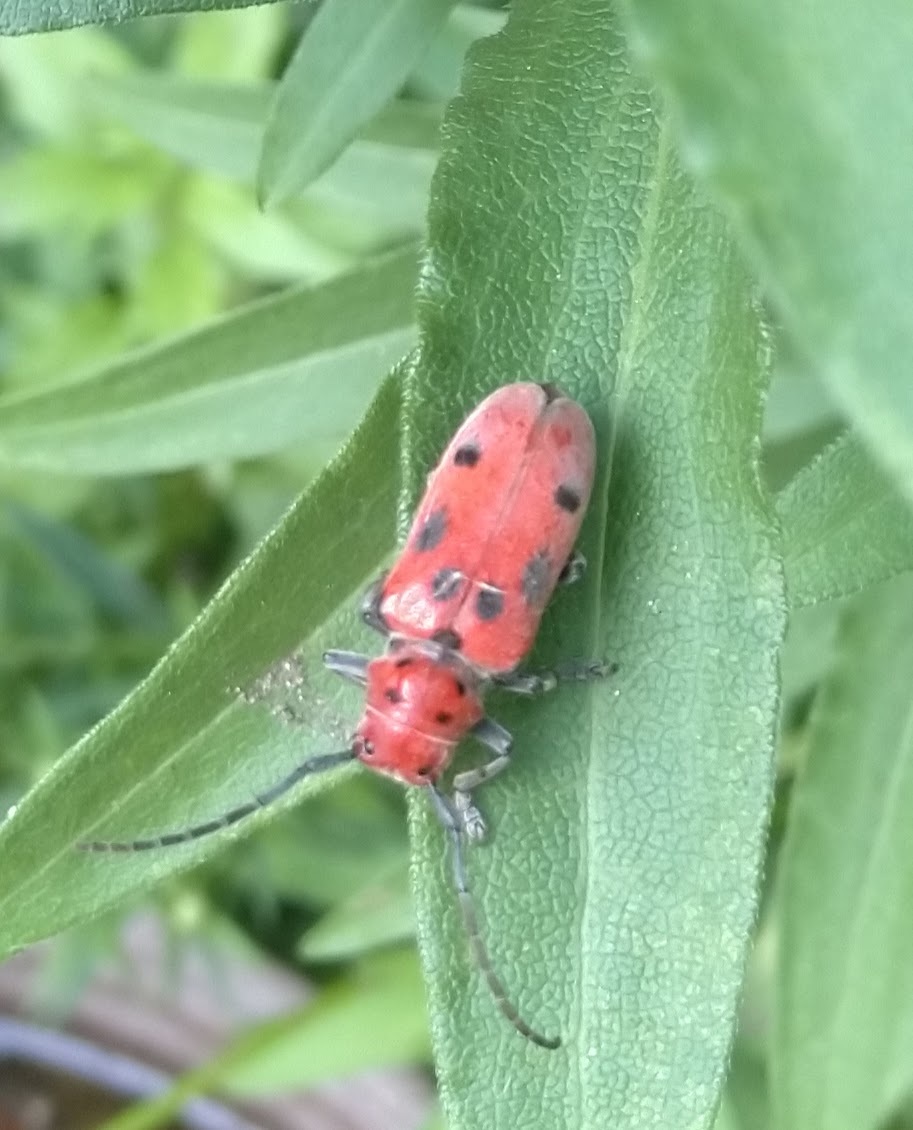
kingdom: Animalia
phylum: Arthropoda
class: Insecta
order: Coleoptera
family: Cerambycidae
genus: Tetraopes
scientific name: Tetraopes tetrophthalmus
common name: Red milkweed beetle
